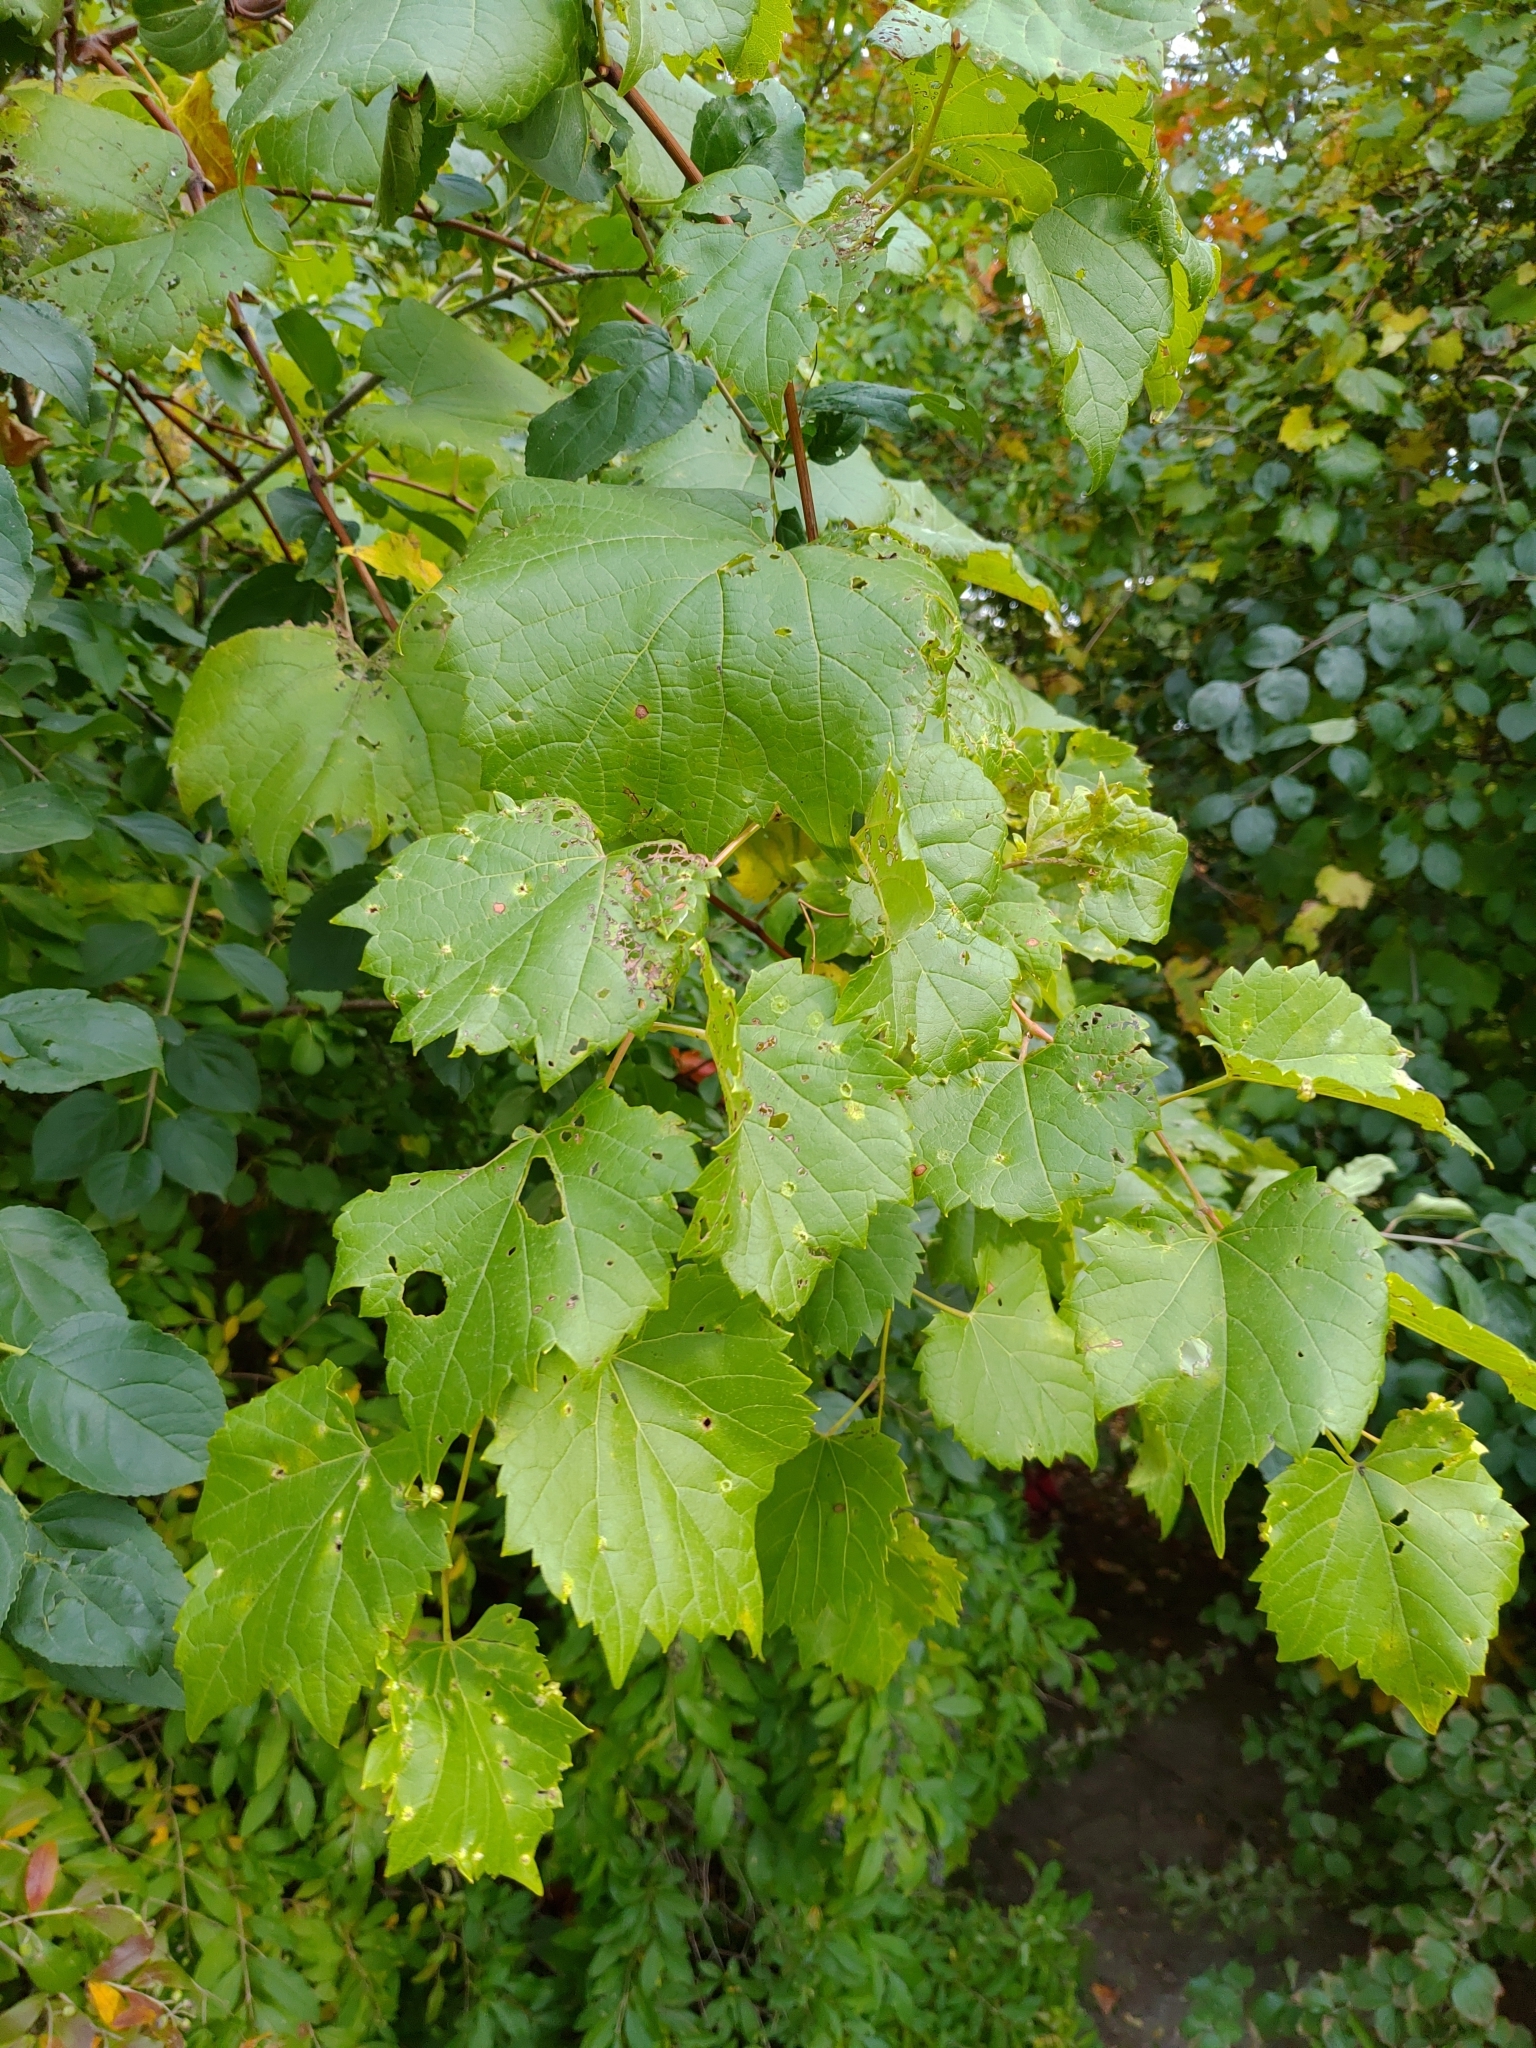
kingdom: Plantae
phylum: Tracheophyta
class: Magnoliopsida
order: Vitales
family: Vitaceae
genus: Vitis
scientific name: Vitis riparia
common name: Frost grape
